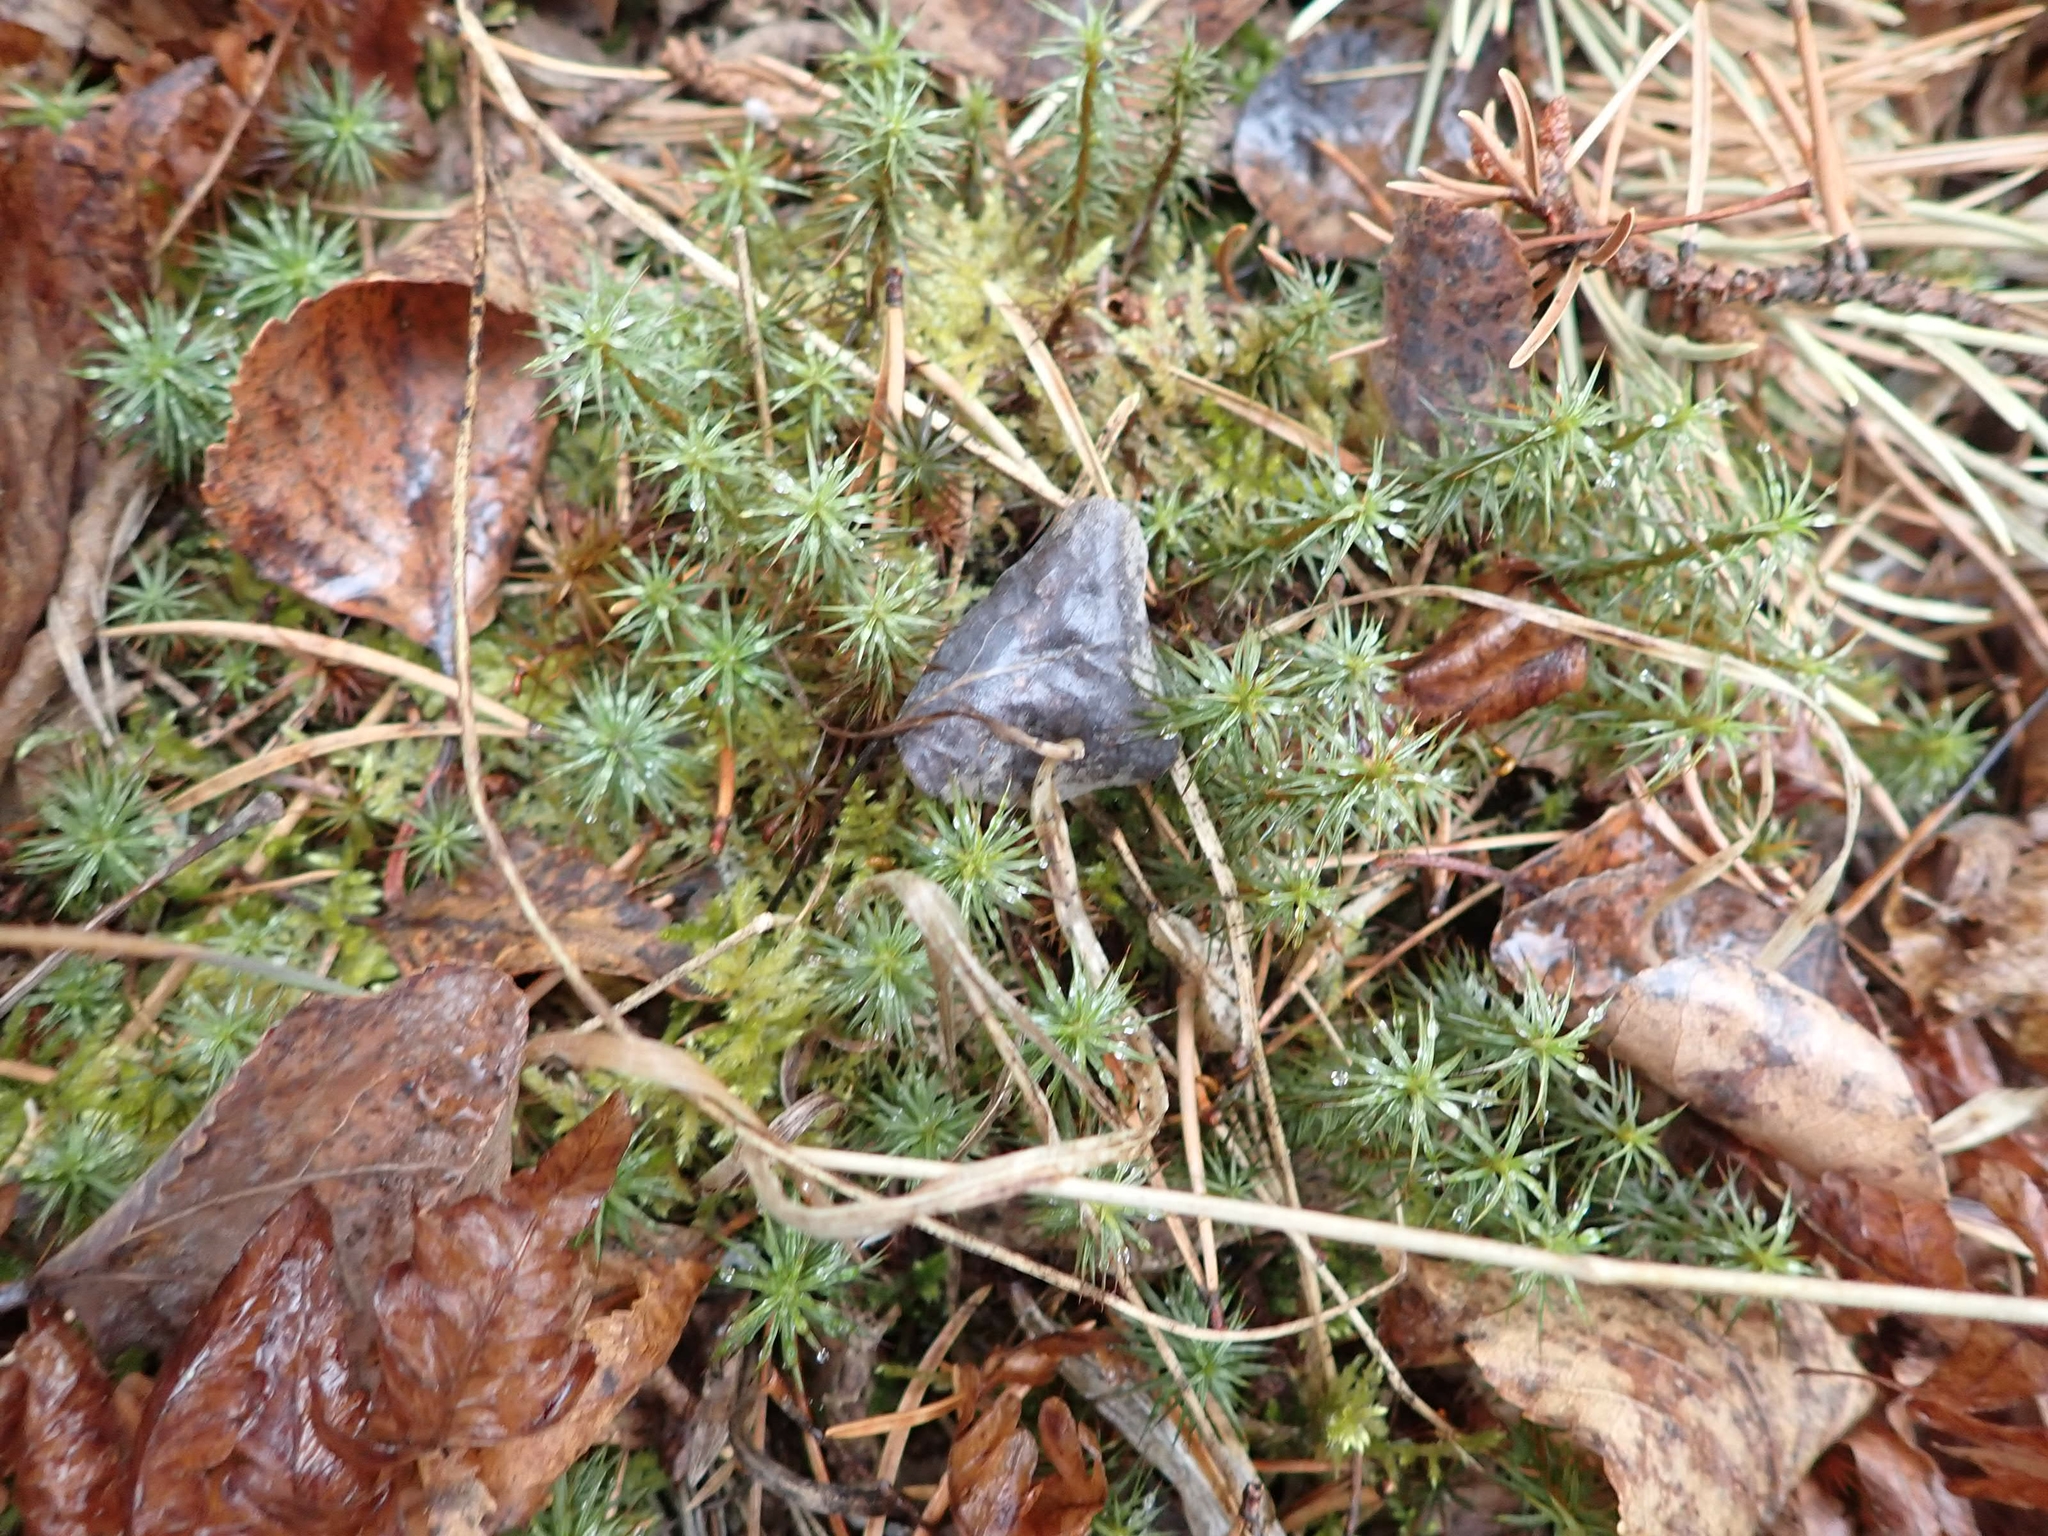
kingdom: Plantae
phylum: Bryophyta
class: Polytrichopsida
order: Polytrichales
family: Polytrichaceae
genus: Polytrichum
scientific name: Polytrichum juniperinum
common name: Juniper haircap moss
